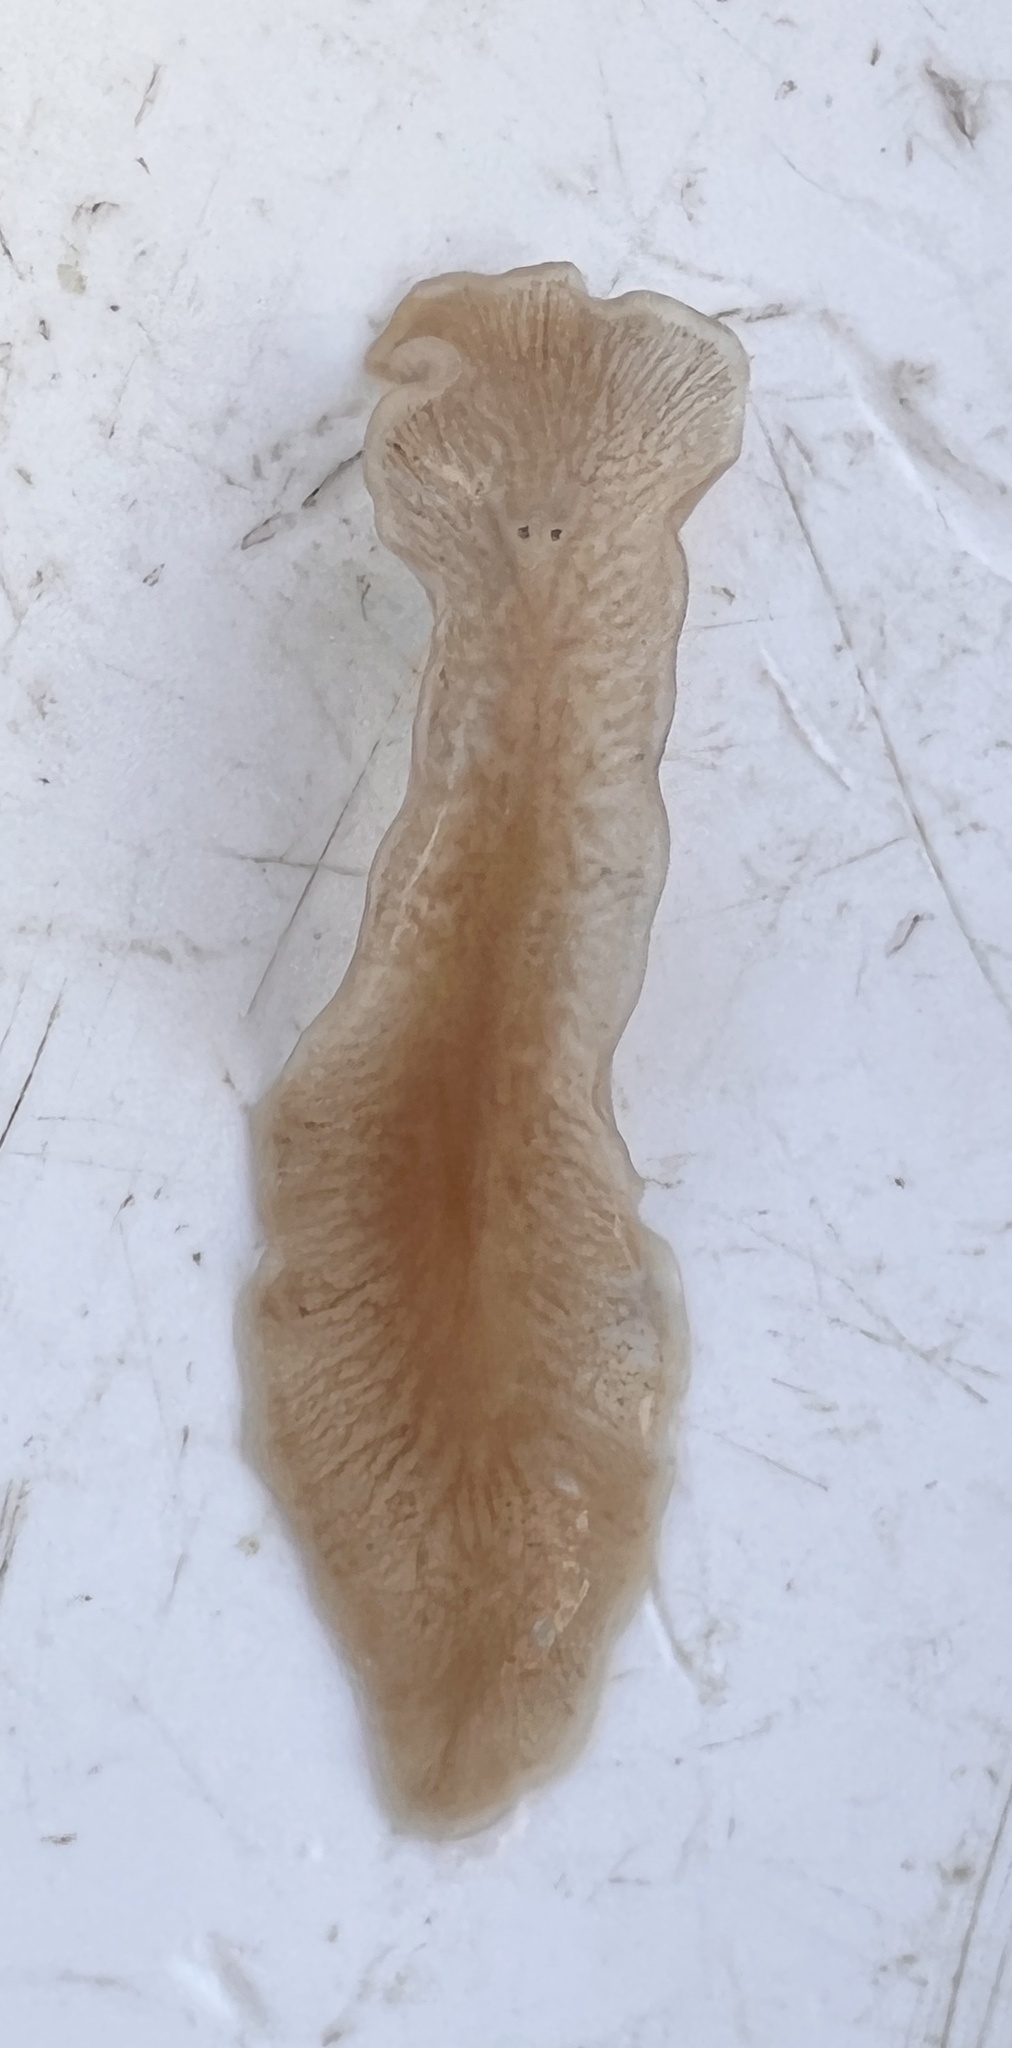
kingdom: Animalia
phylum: Platyhelminthes
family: Notocomplanidae
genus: Notocomplana
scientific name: Notocomplana ferruginea
